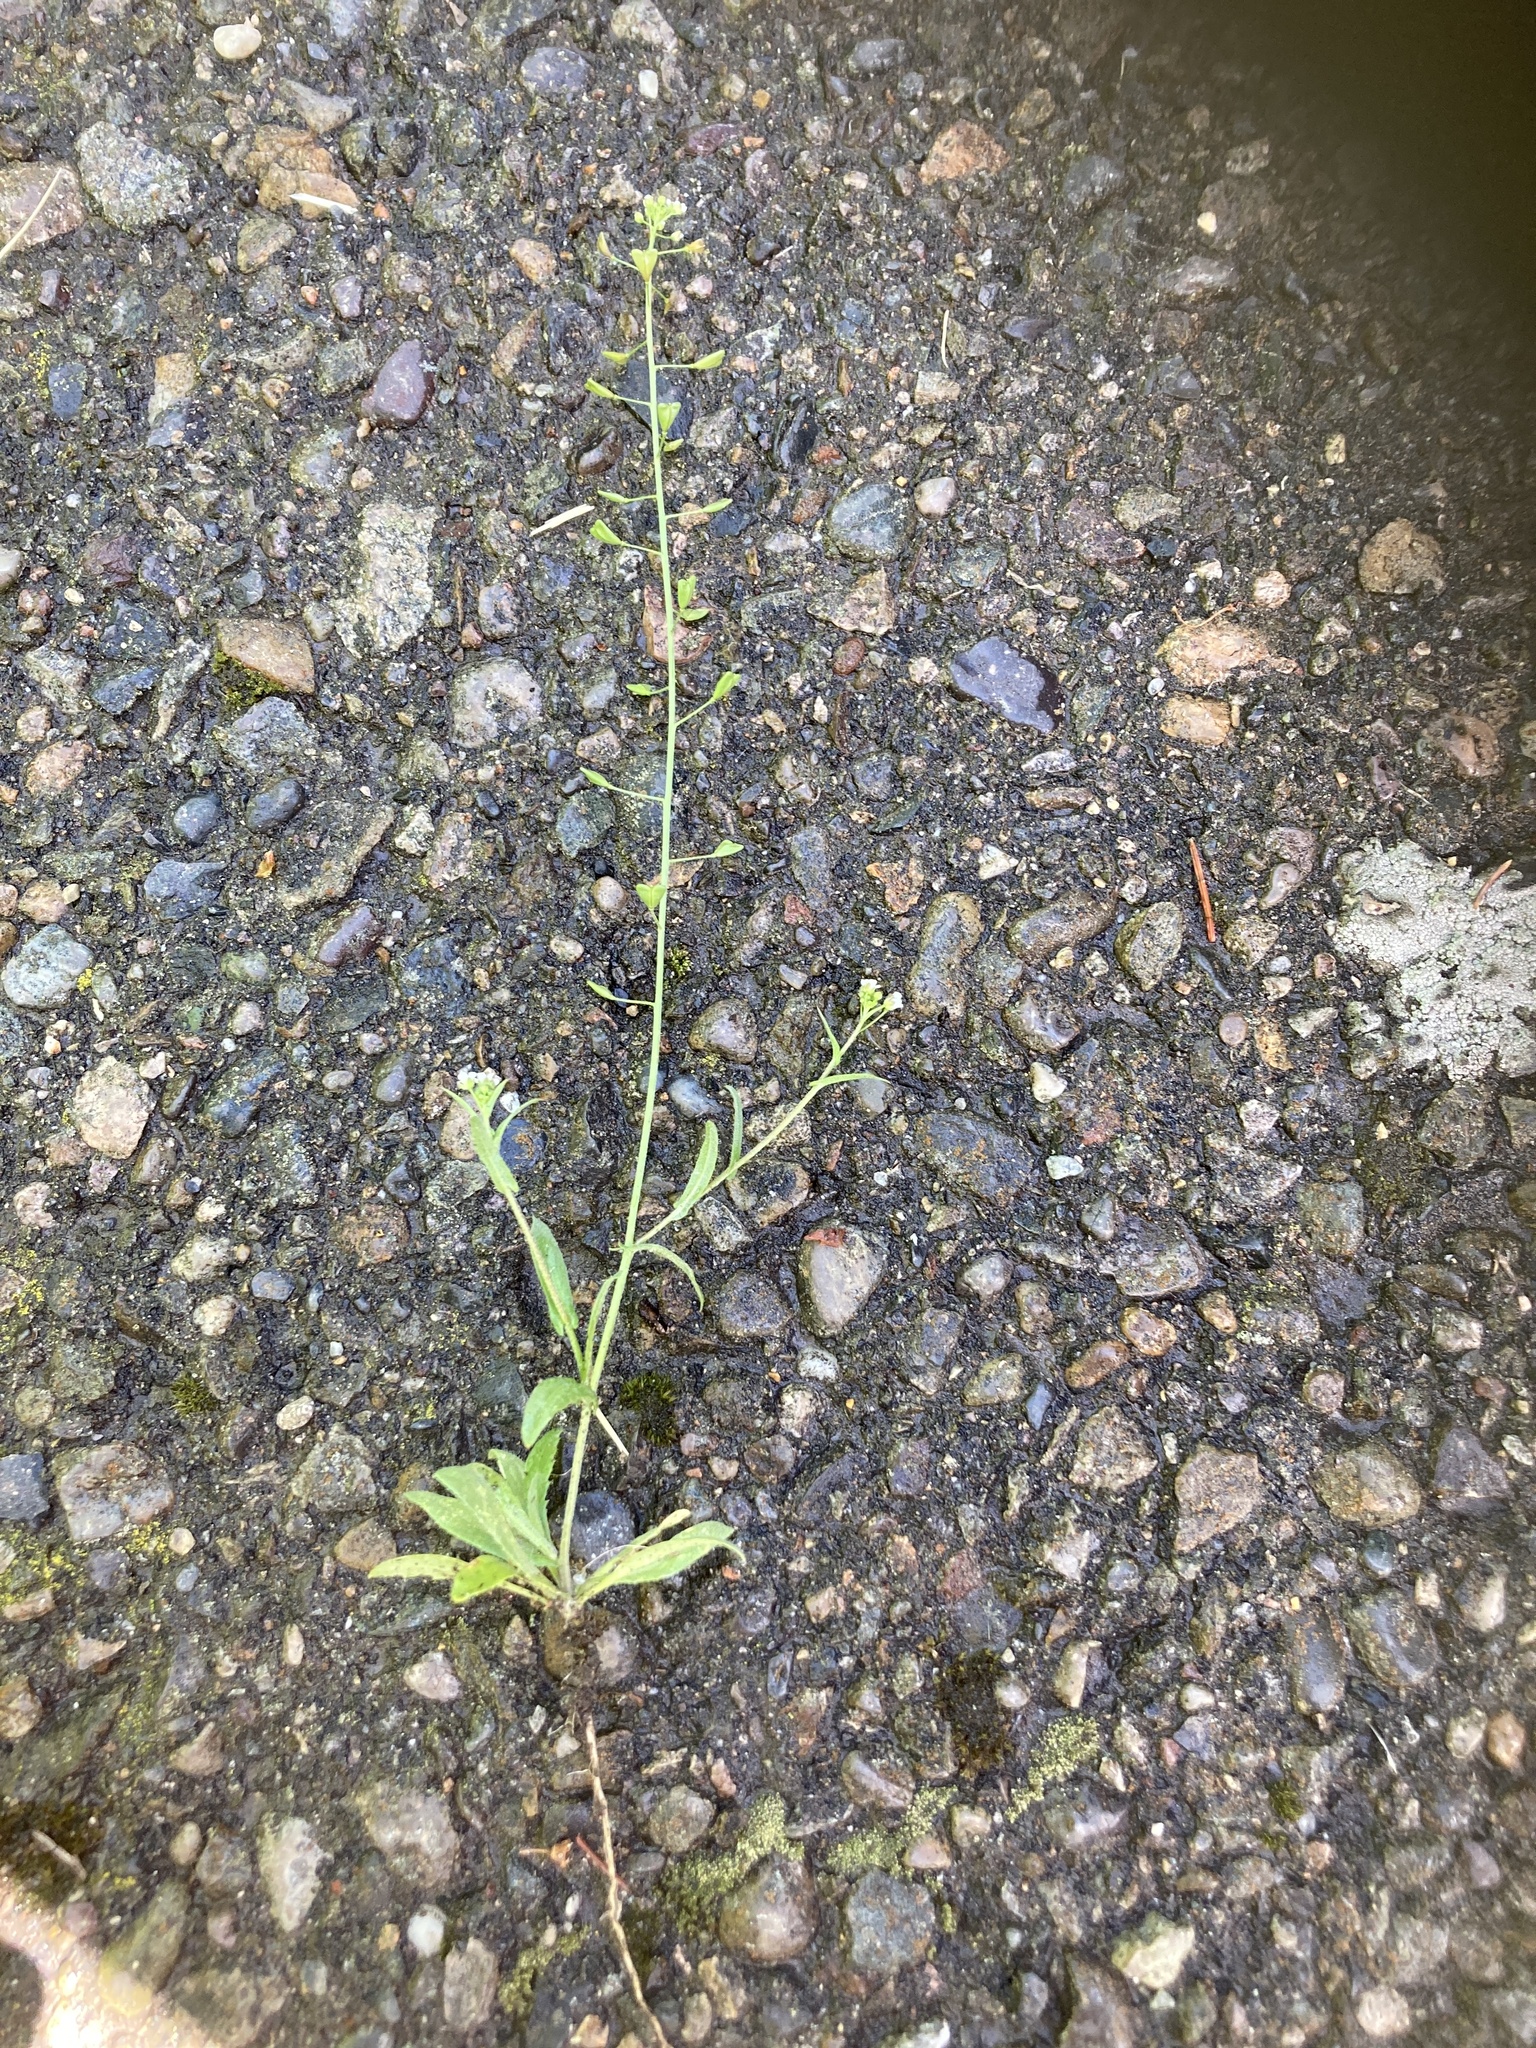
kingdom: Plantae
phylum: Tracheophyta
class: Magnoliopsida
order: Brassicales
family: Brassicaceae
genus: Capsella
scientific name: Capsella bursa-pastoris
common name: Shepherd's purse
